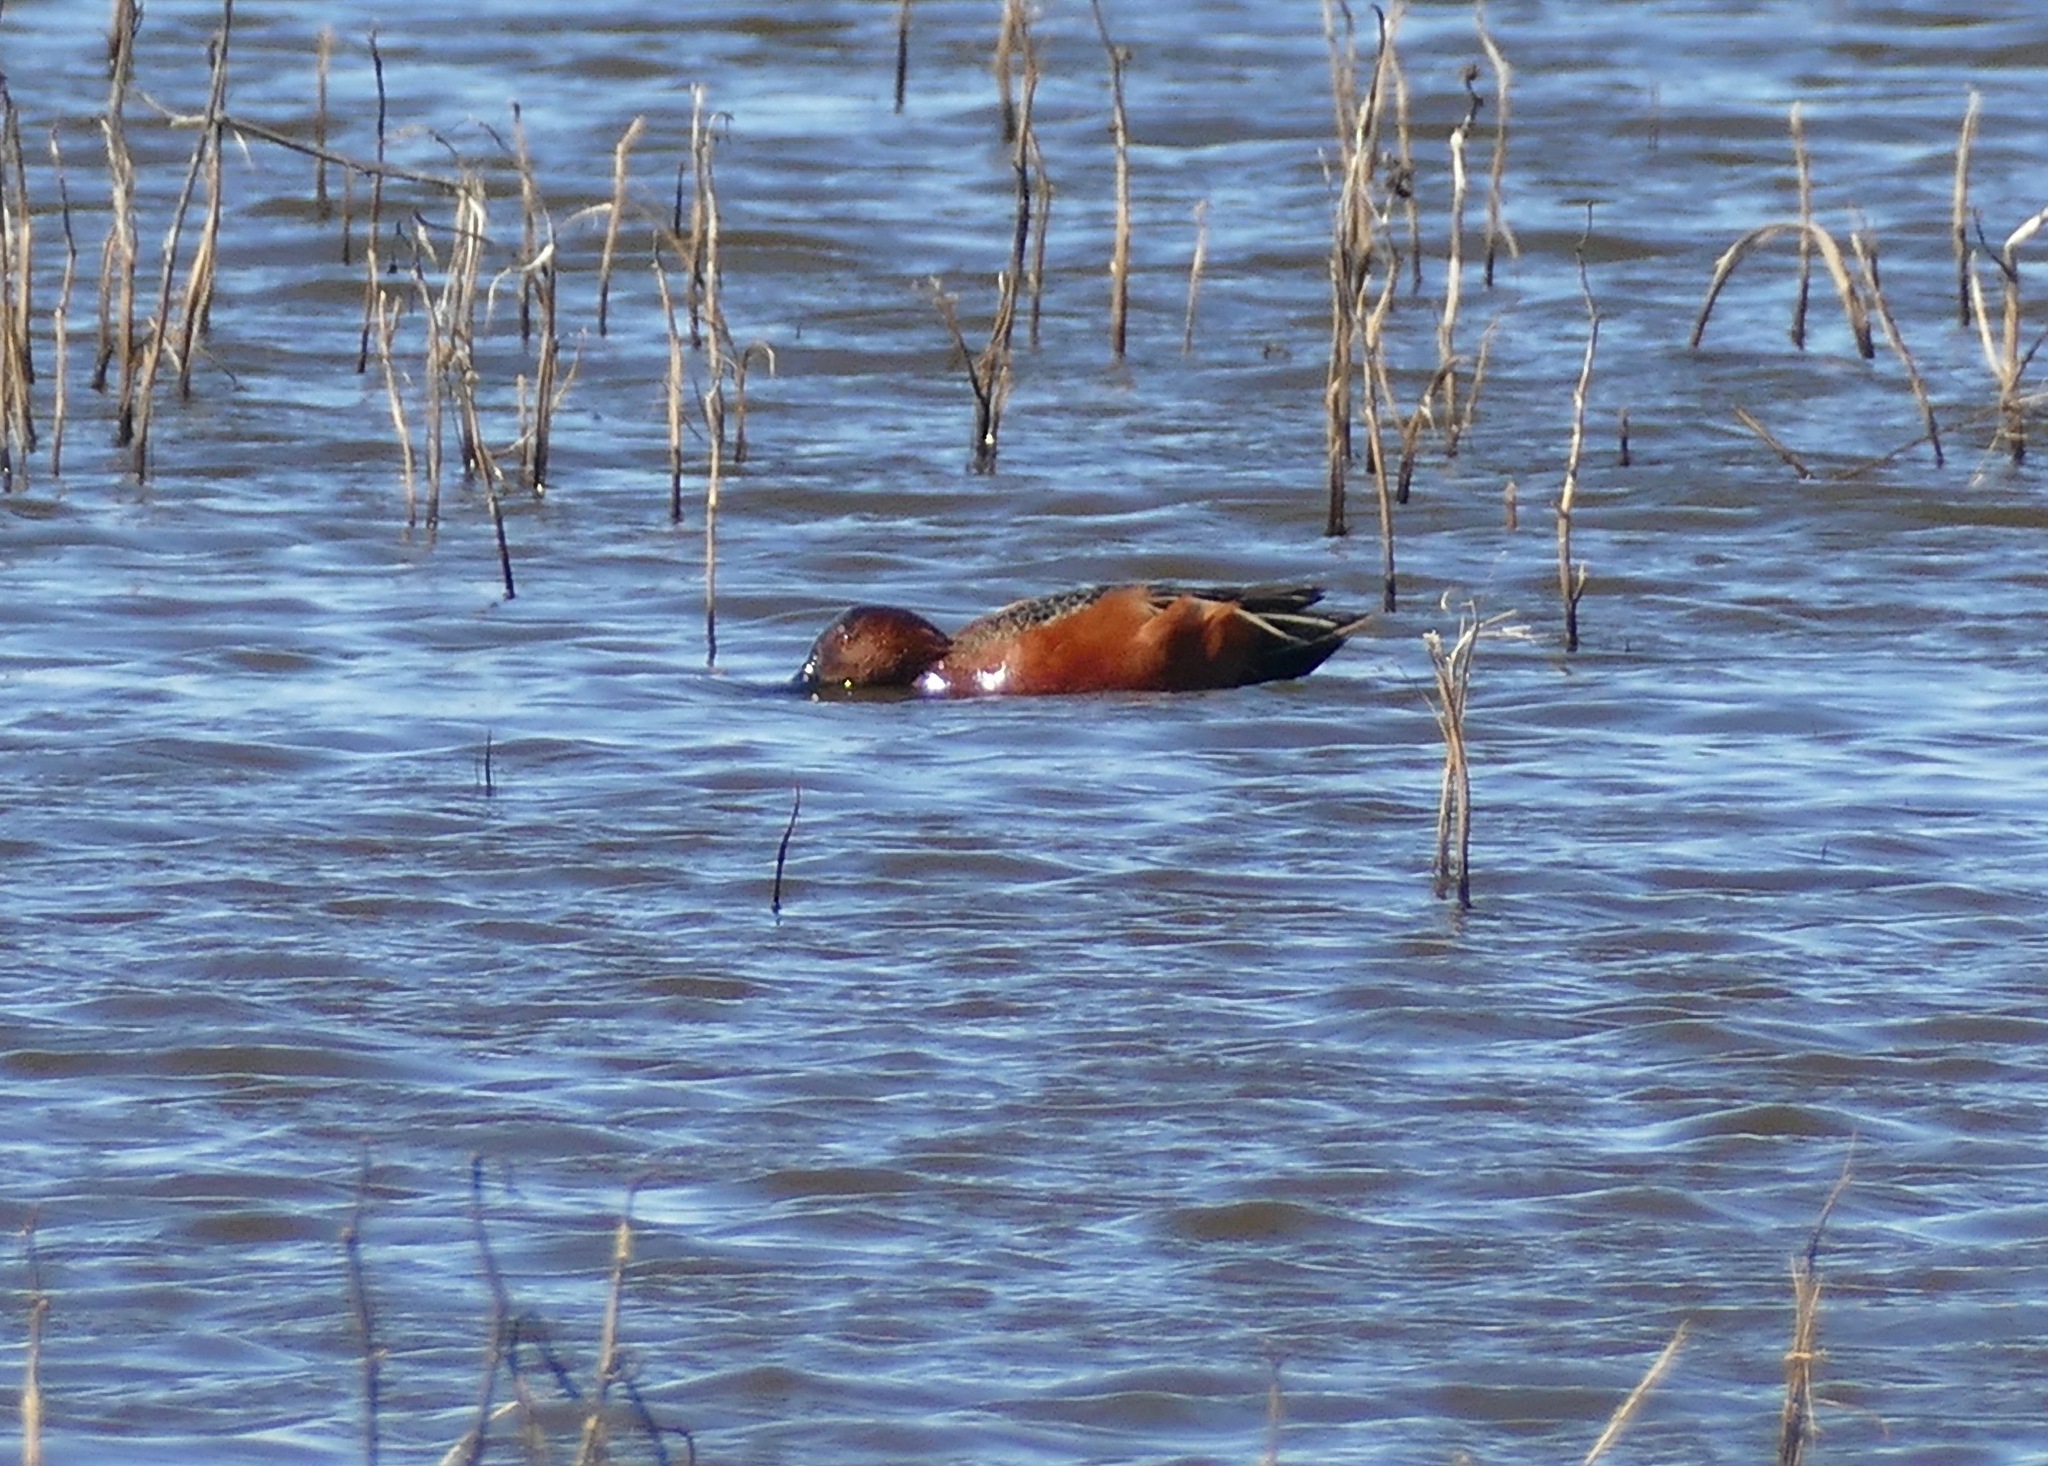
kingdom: Animalia
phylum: Chordata
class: Aves
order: Anseriformes
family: Anatidae
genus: Spatula
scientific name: Spatula cyanoptera
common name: Cinnamon teal
